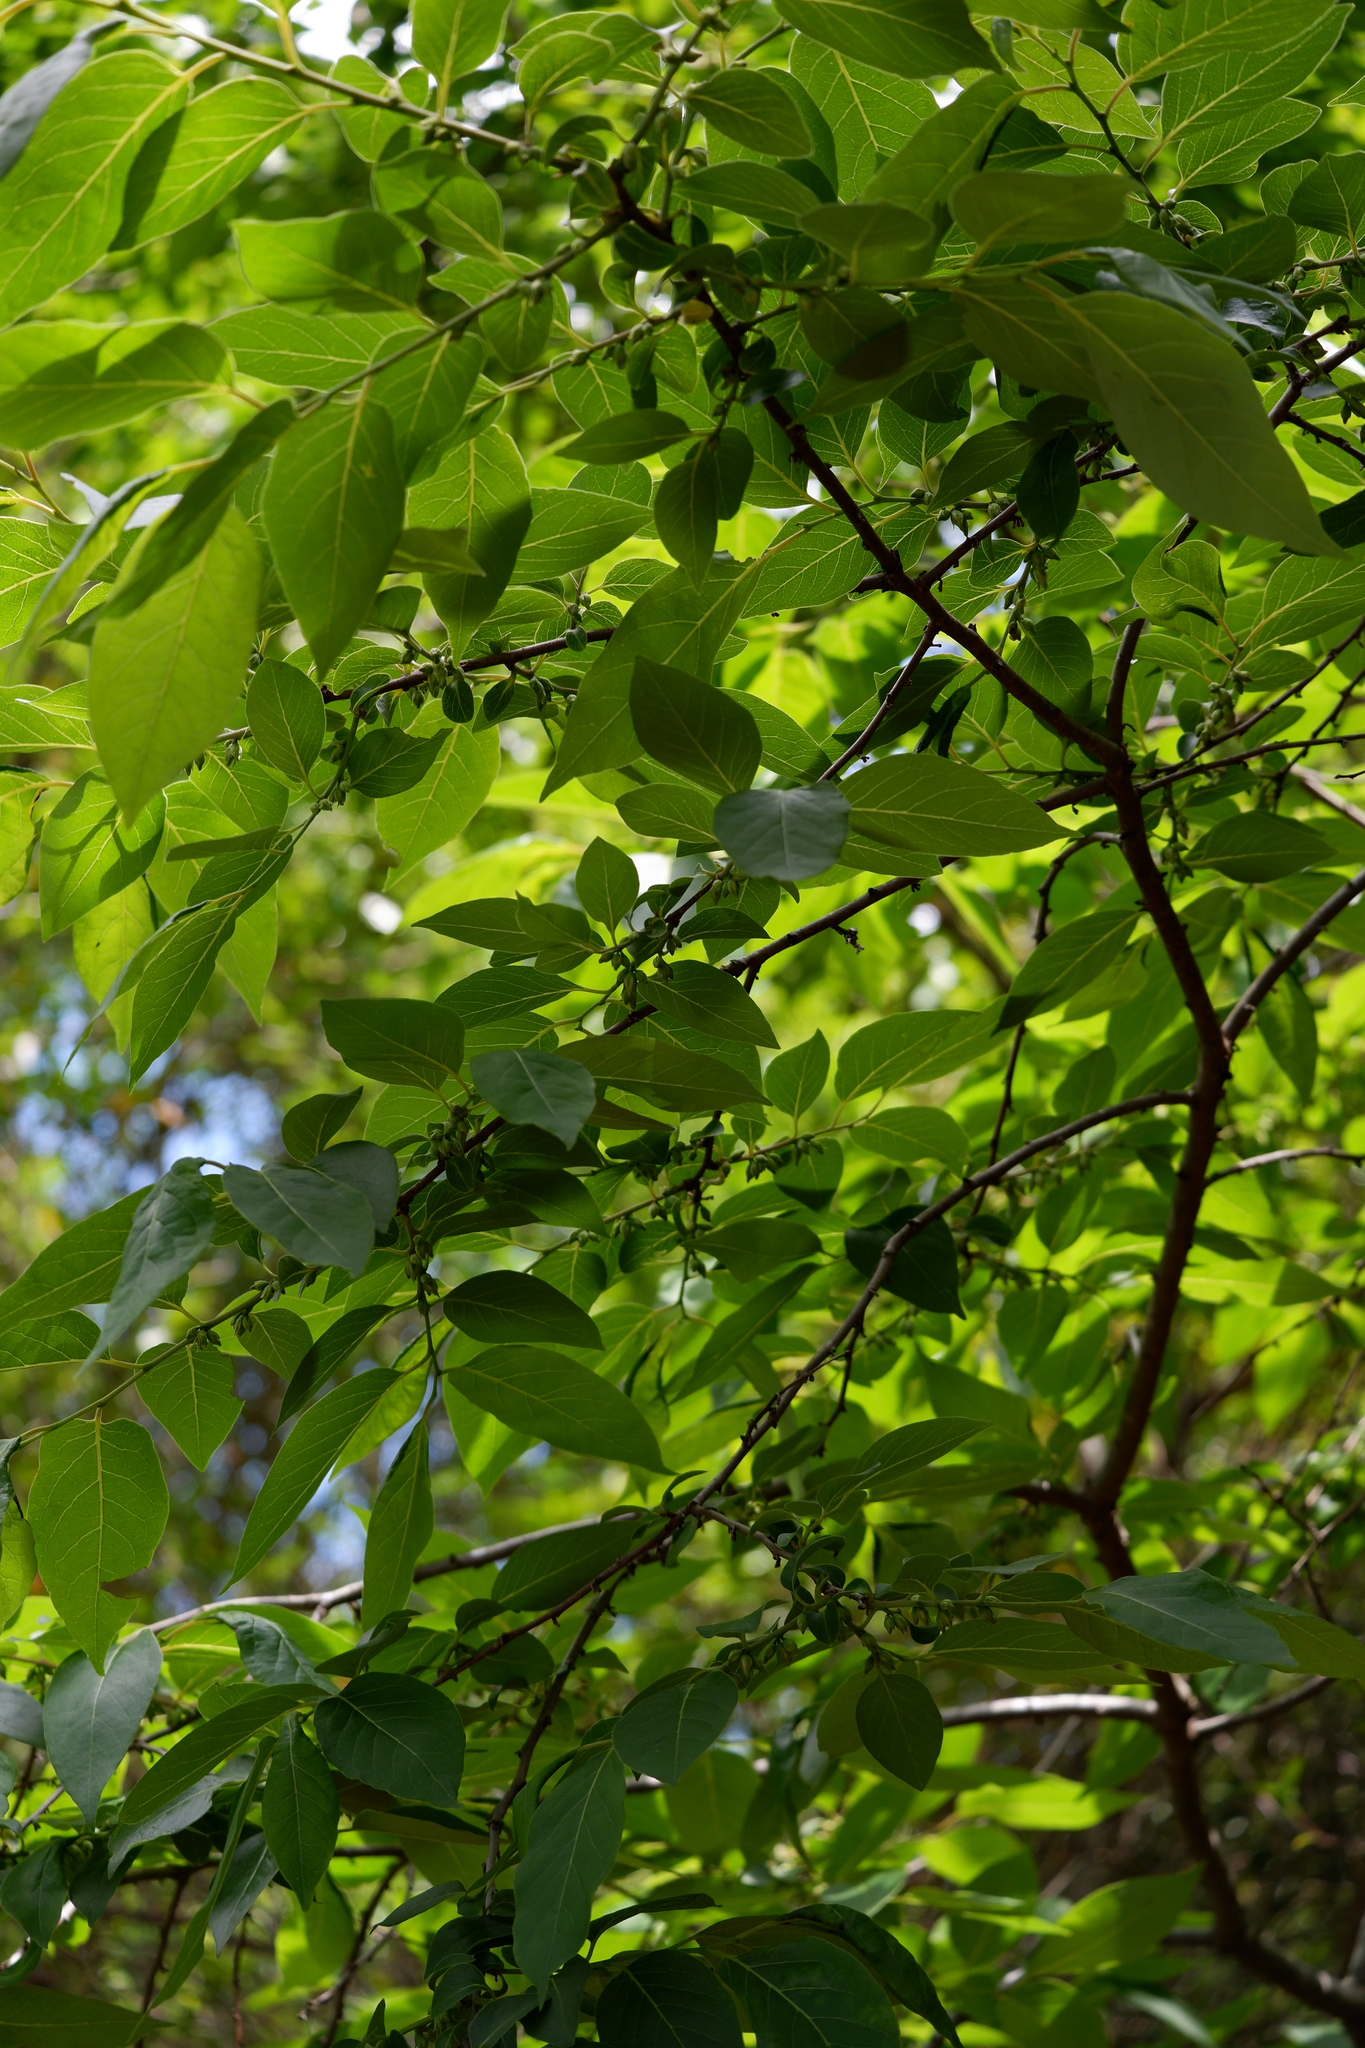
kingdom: Plantae
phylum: Tracheophyta
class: Magnoliopsida
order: Ericales
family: Ebenaceae
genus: Diospyros
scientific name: Diospyros virginiana
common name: Persimmon
